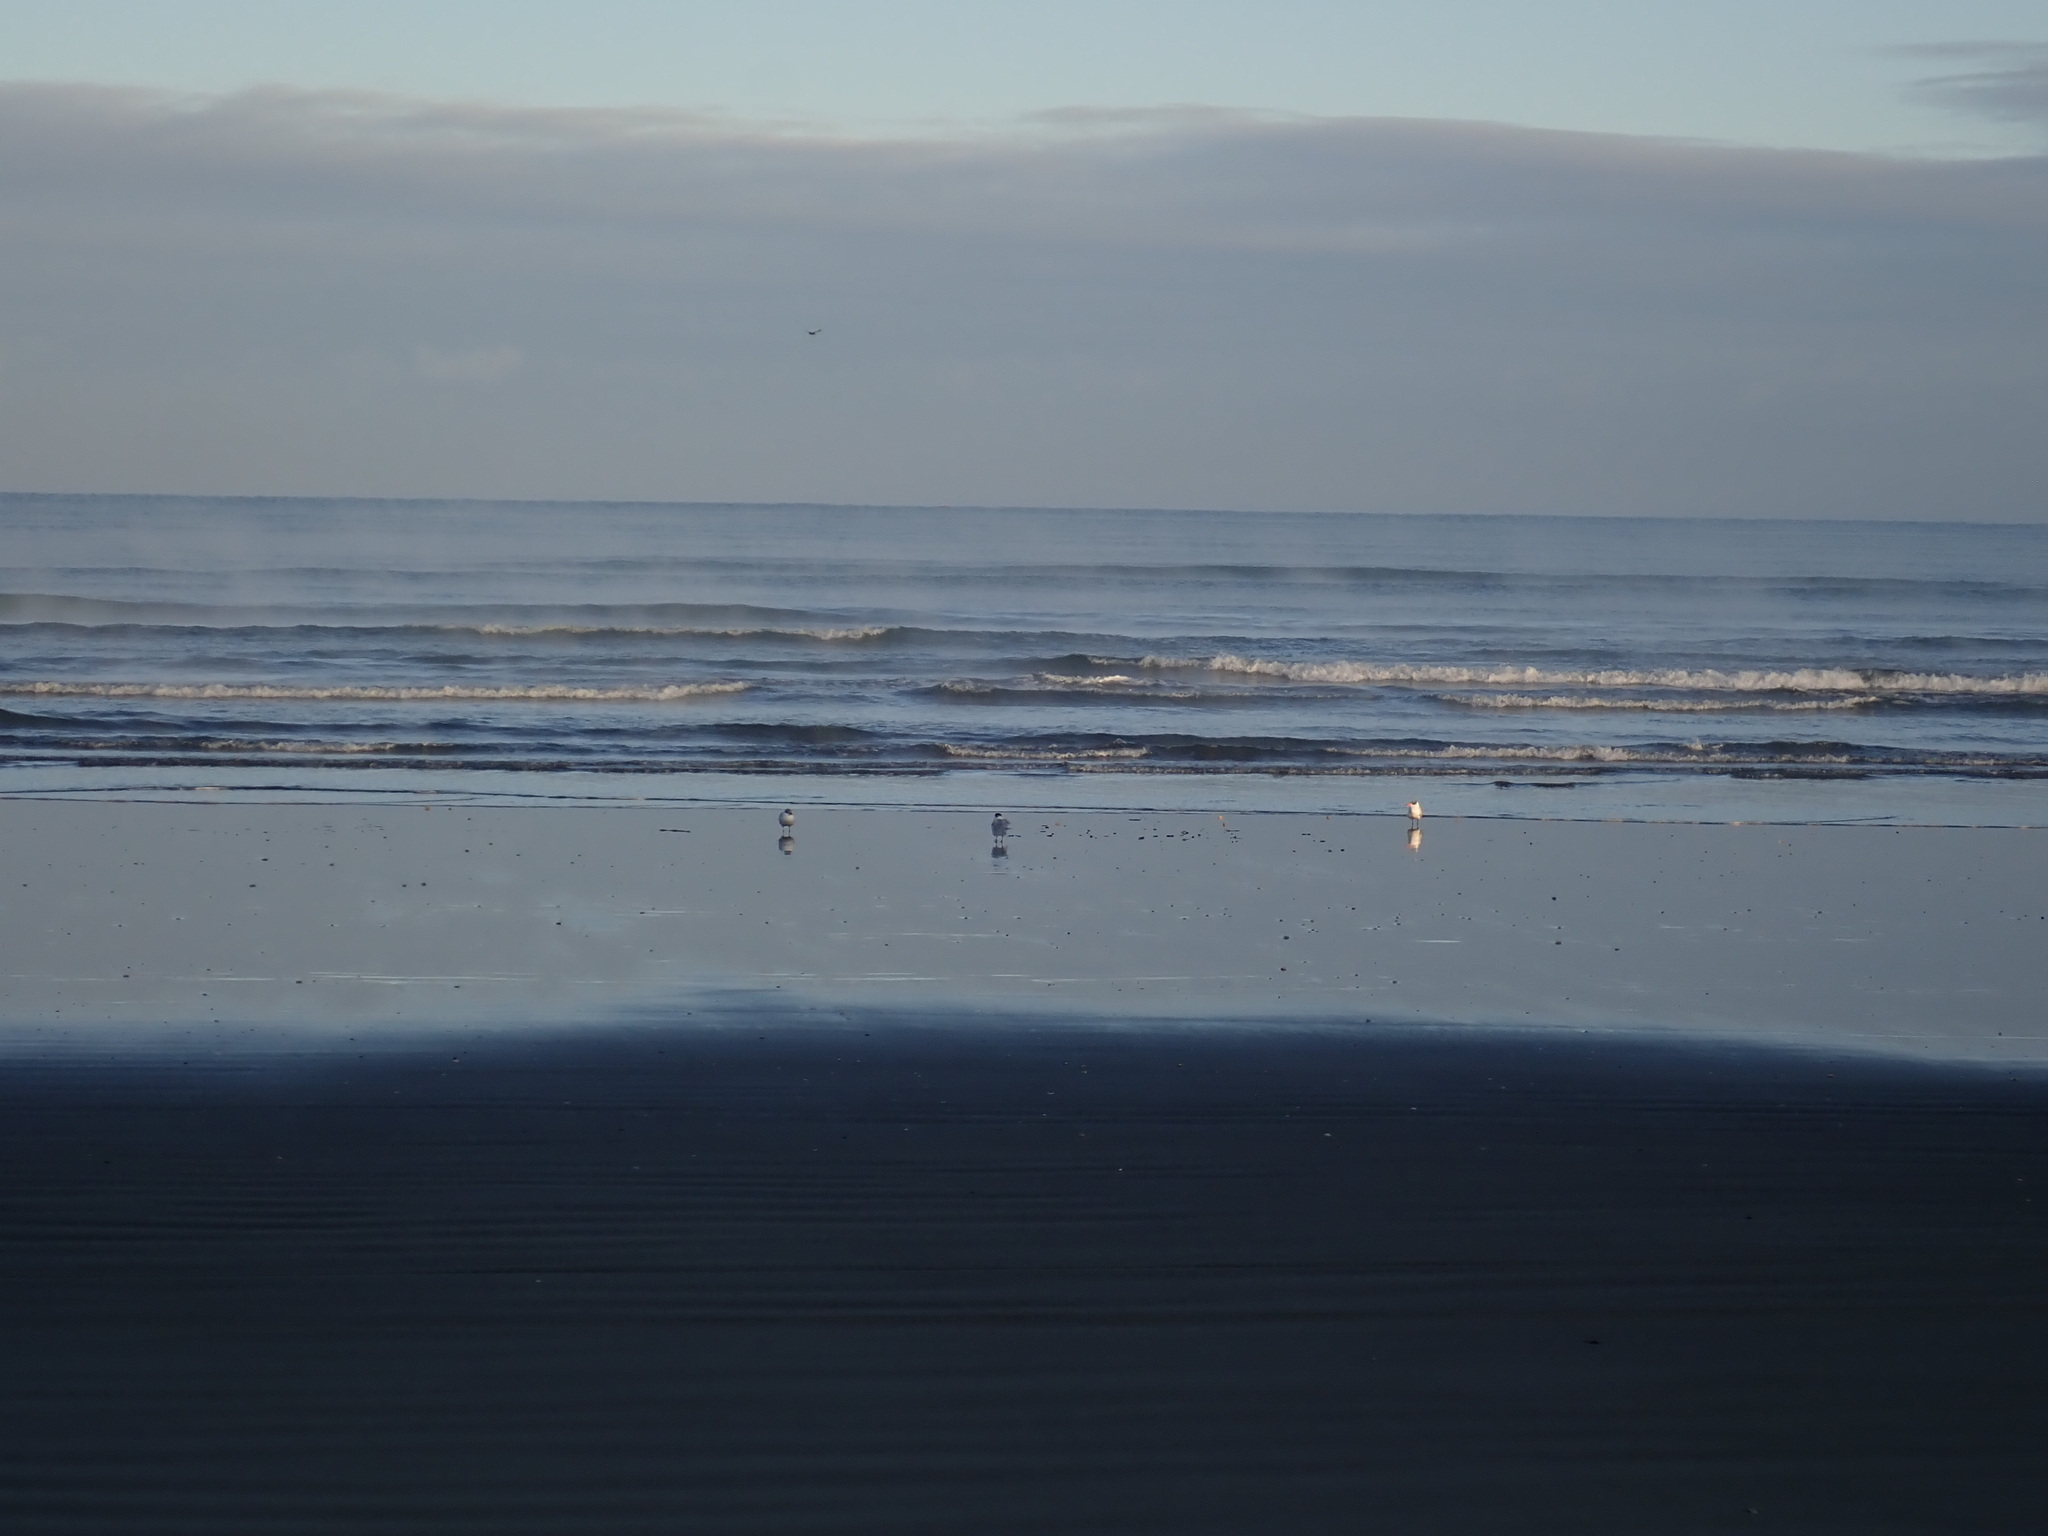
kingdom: Animalia
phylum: Chordata
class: Aves
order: Charadriiformes
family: Laridae
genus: Hydroprogne
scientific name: Hydroprogne caspia
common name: Caspian tern
